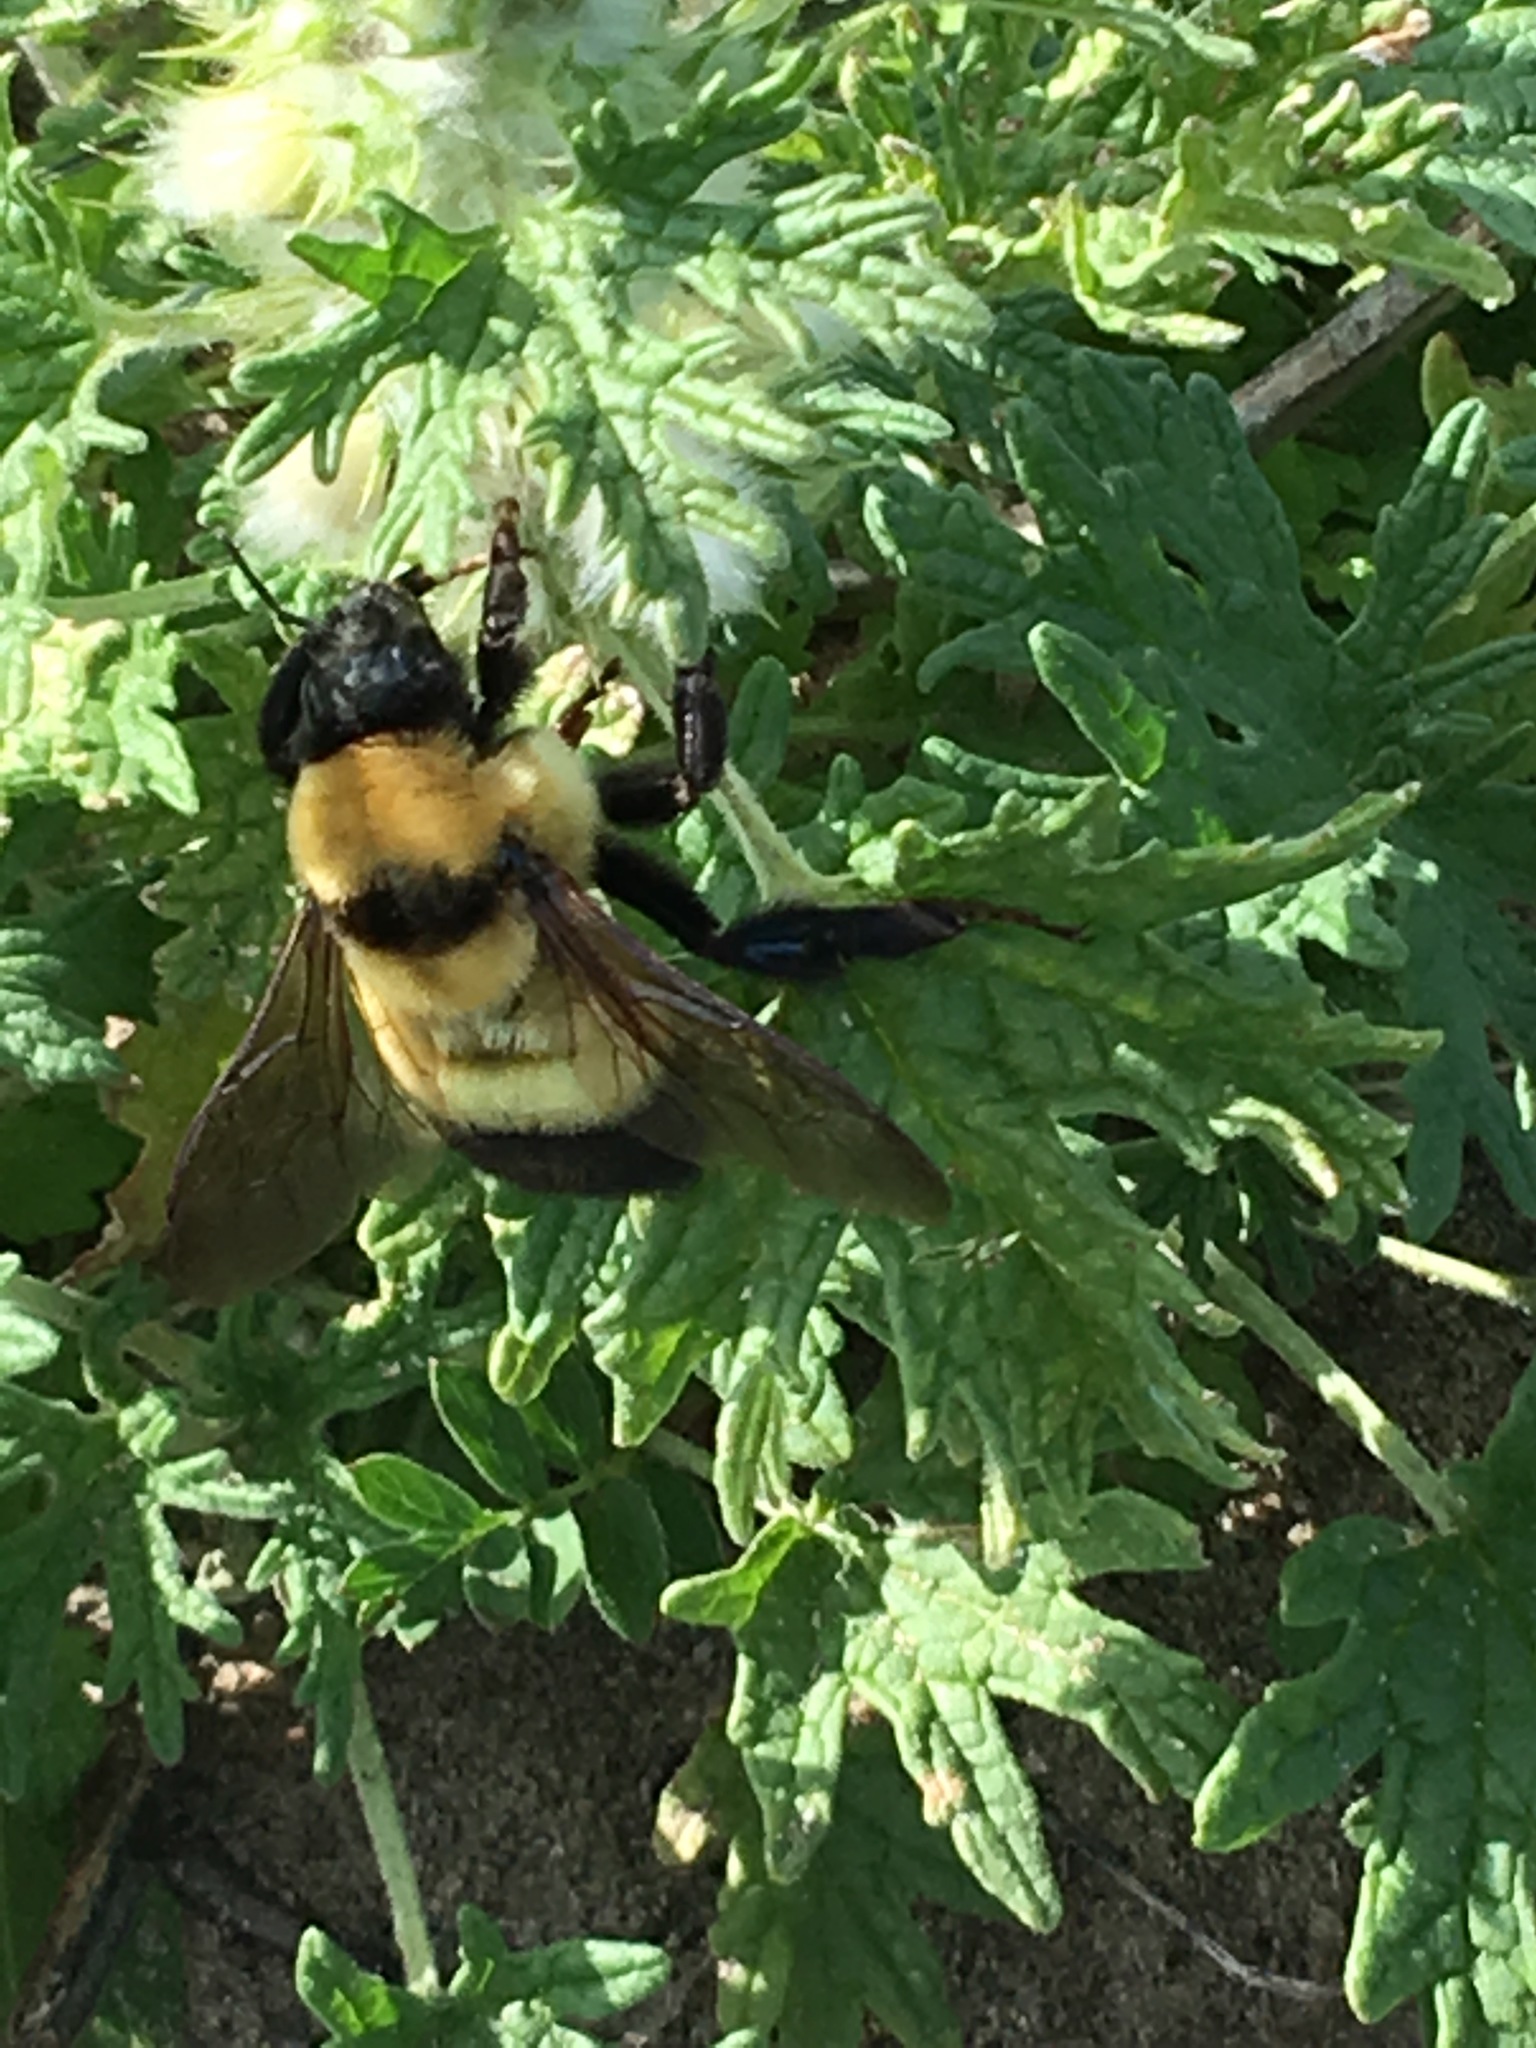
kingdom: Animalia
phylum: Arthropoda
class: Insecta
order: Hymenoptera
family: Apidae
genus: Bombus
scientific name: Bombus melanurus
